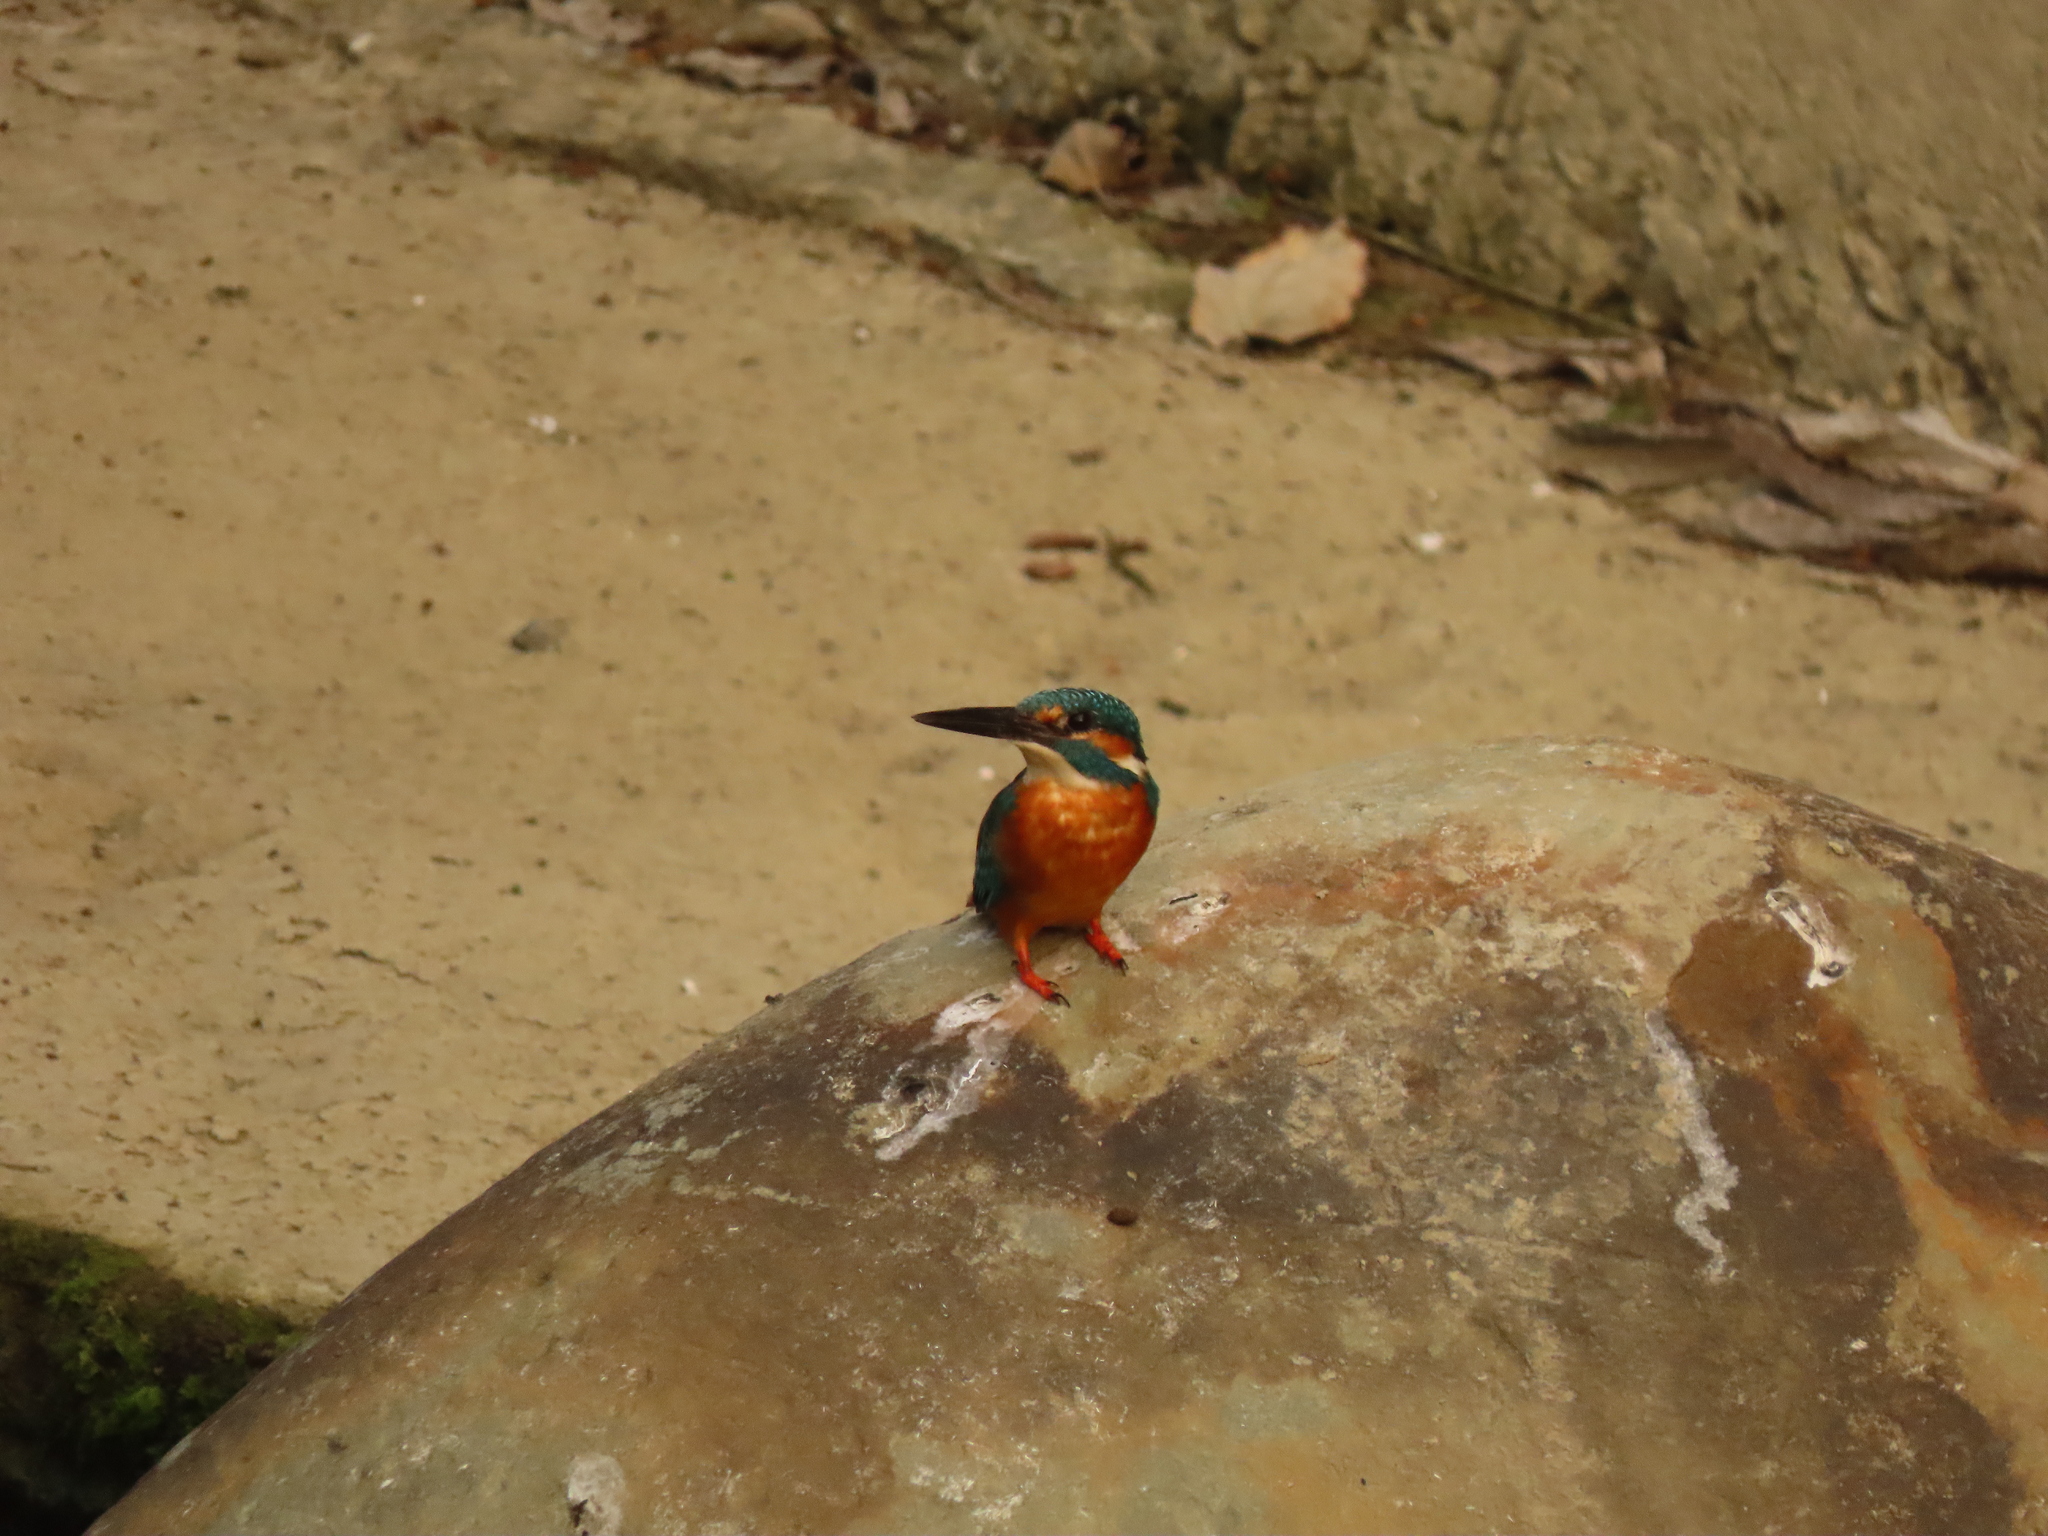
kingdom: Animalia
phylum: Chordata
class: Aves
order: Coraciiformes
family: Alcedinidae
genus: Alcedo
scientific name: Alcedo atthis
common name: Common kingfisher
